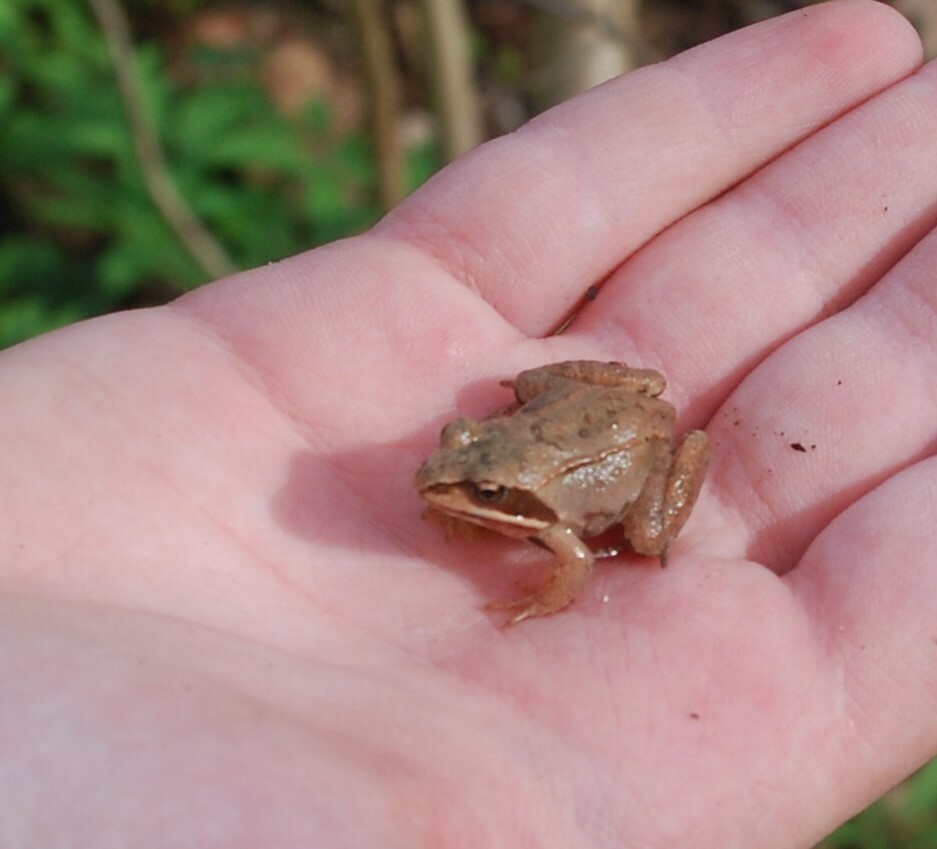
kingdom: Animalia
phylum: Chordata
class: Amphibia
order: Anura
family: Ranidae
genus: Rana
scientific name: Rana arvalis
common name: Moor frog
